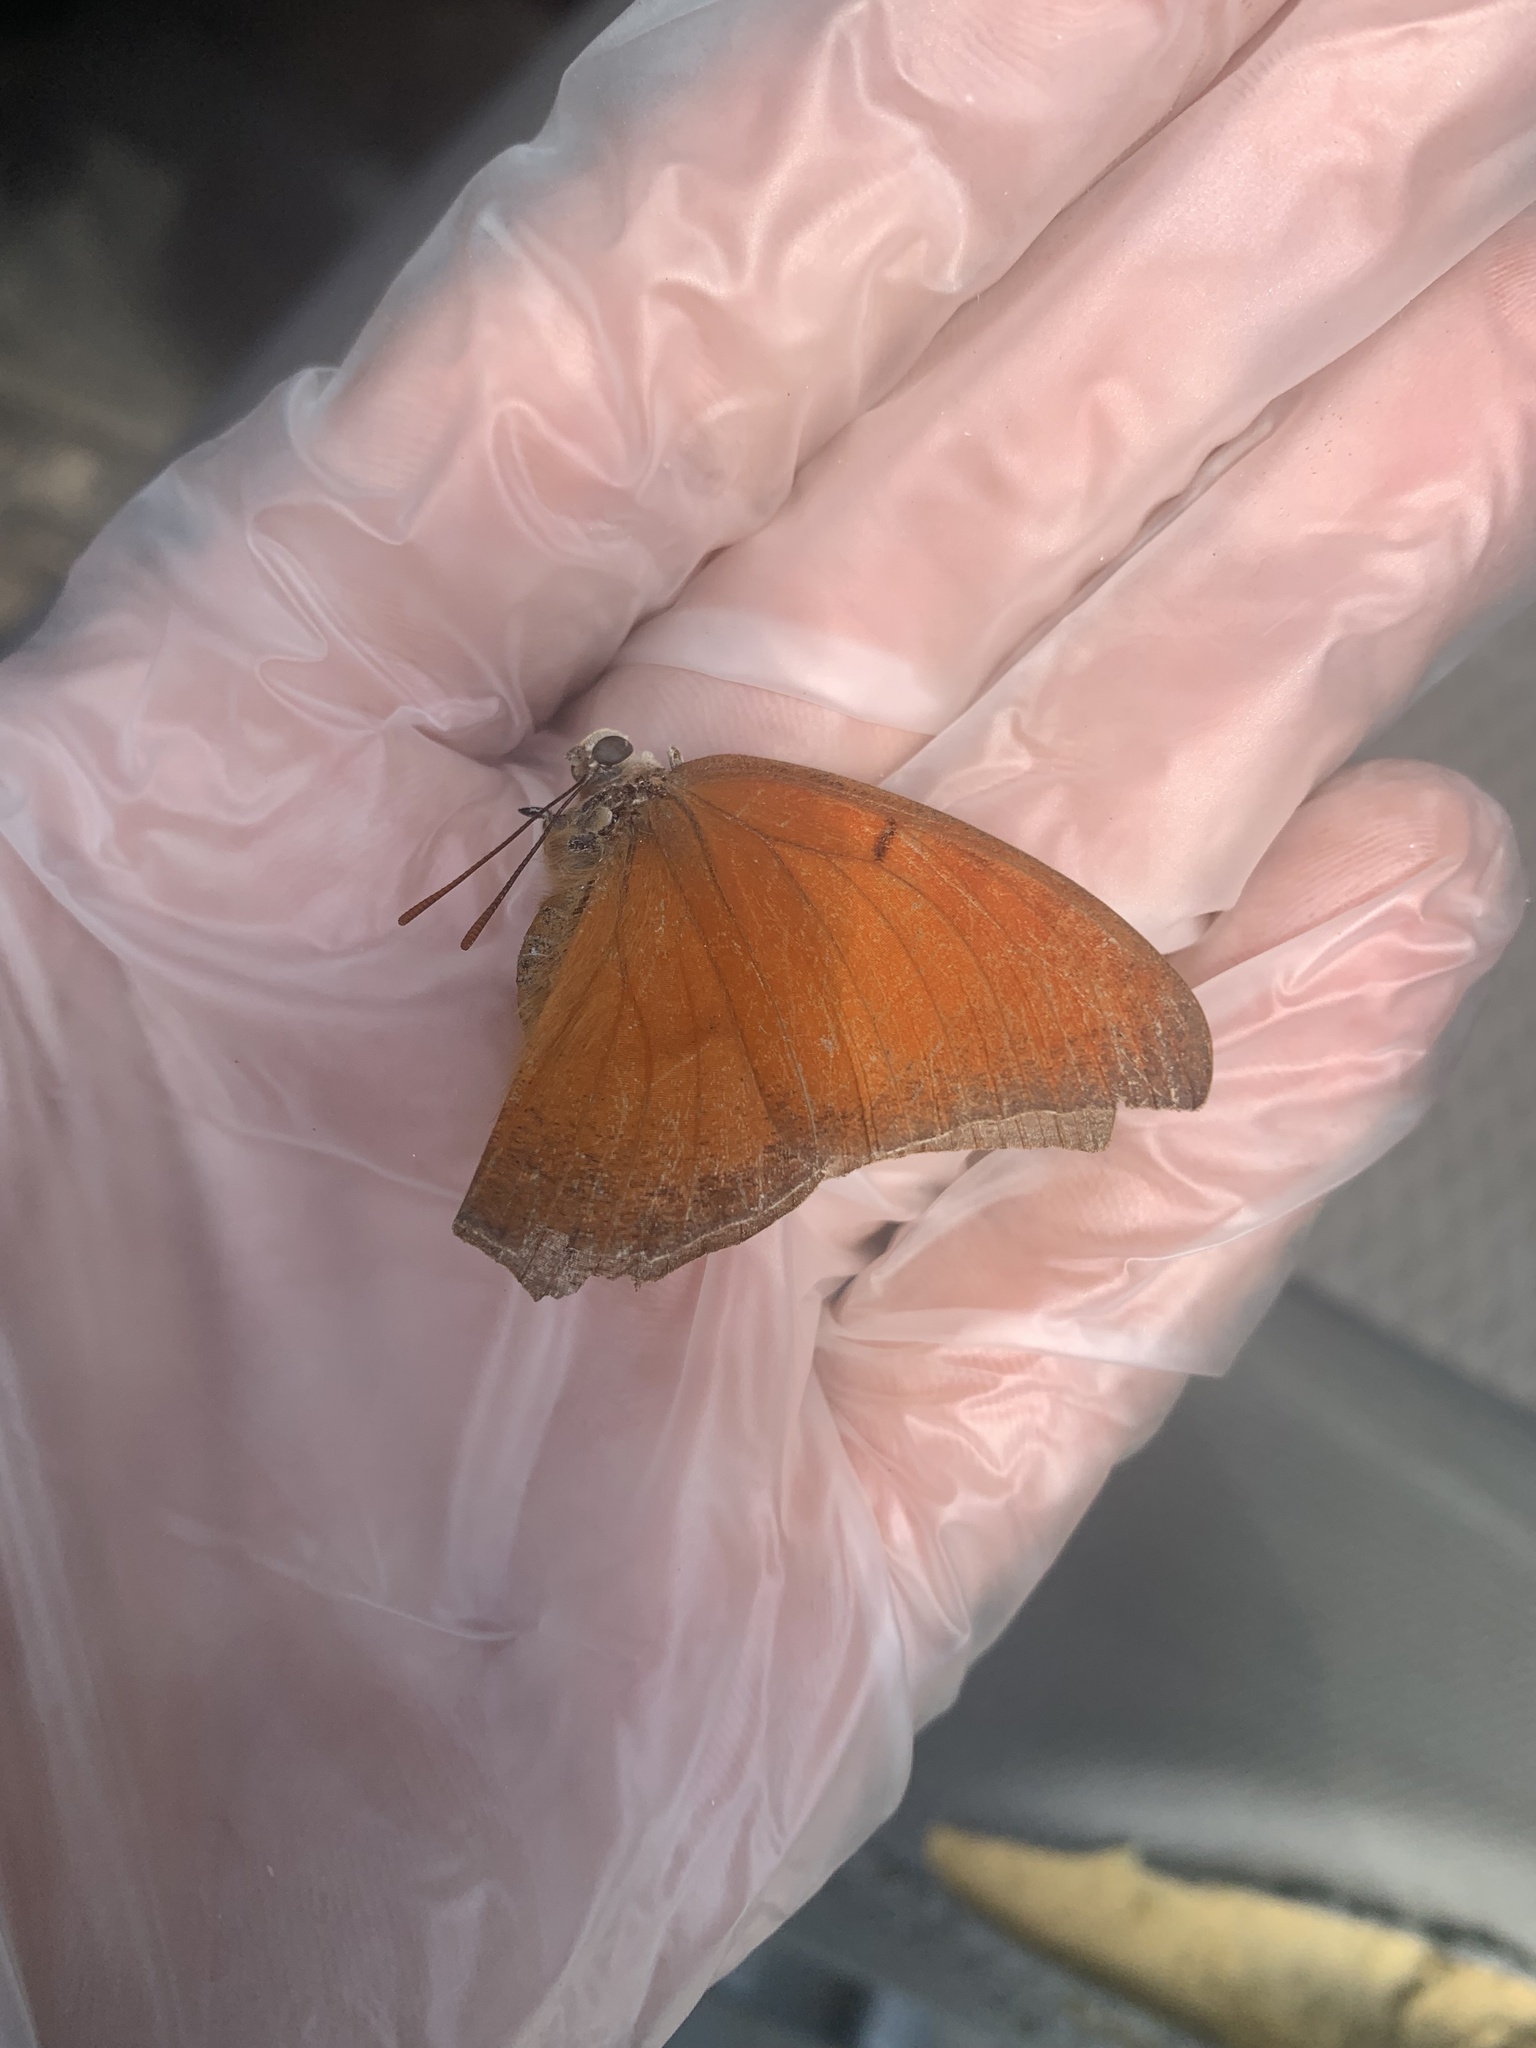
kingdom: Animalia
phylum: Arthropoda
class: Insecta
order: Lepidoptera
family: Nymphalidae
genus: Anaea
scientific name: Anaea andria
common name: Goatweed leafwing
